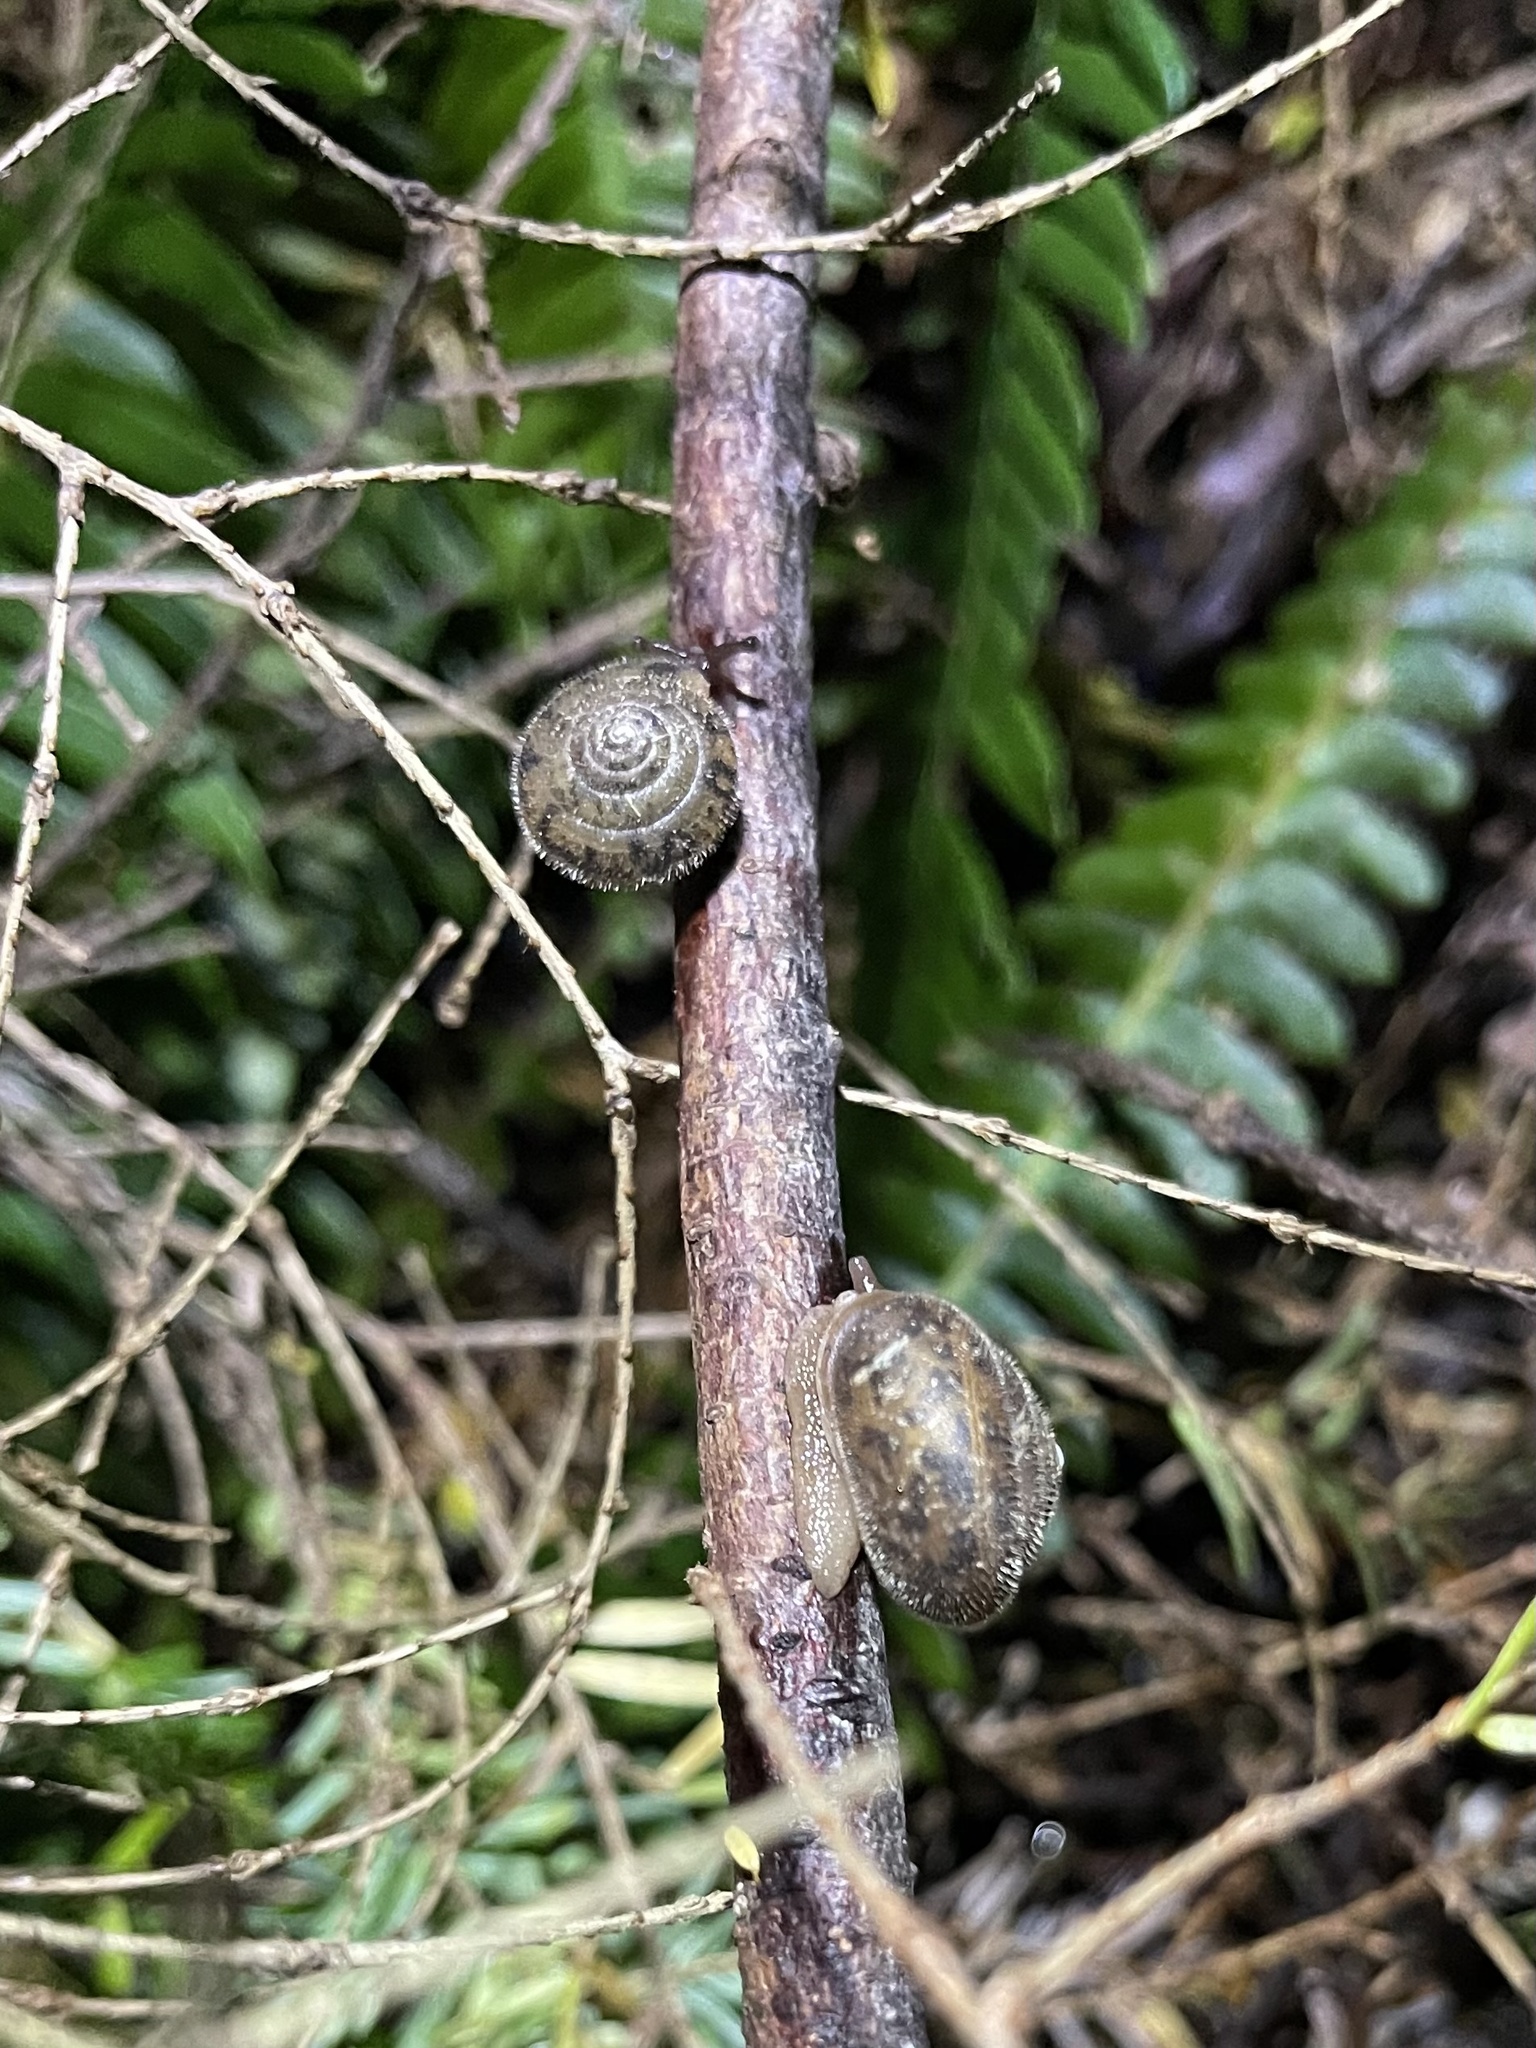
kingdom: Animalia
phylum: Mollusca
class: Gastropoda
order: Stylommatophora
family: Polygyridae
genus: Vespericola
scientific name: Vespericola columbianus
